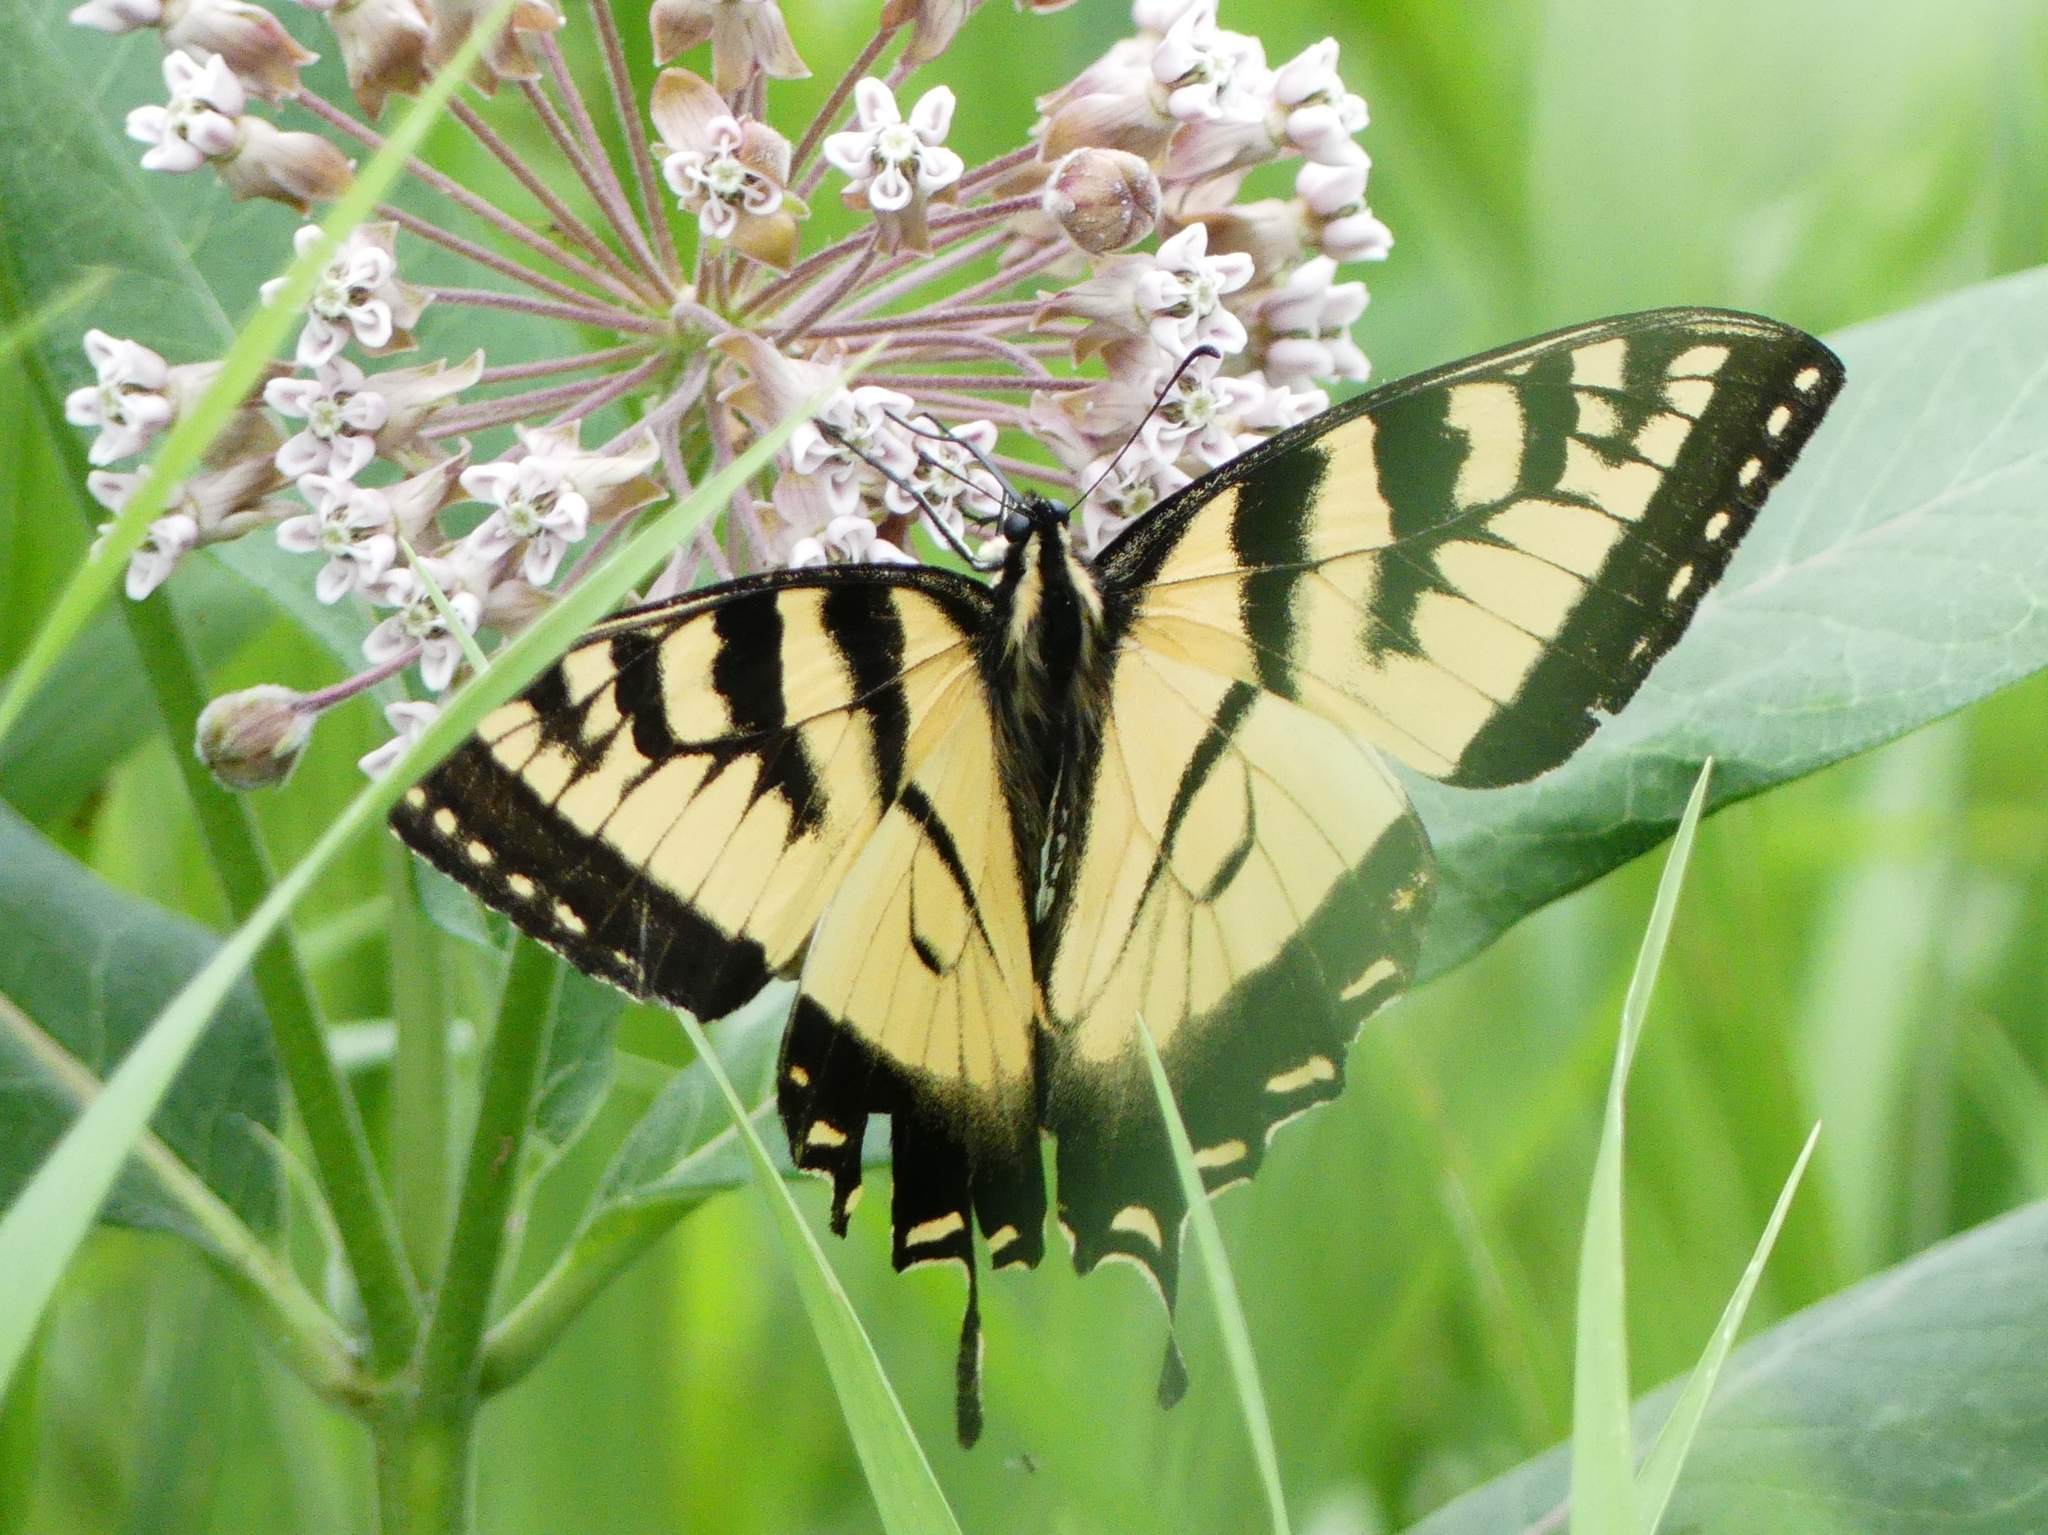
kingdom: Animalia
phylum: Arthropoda
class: Insecta
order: Lepidoptera
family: Papilionidae
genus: Papilio
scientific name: Papilio
